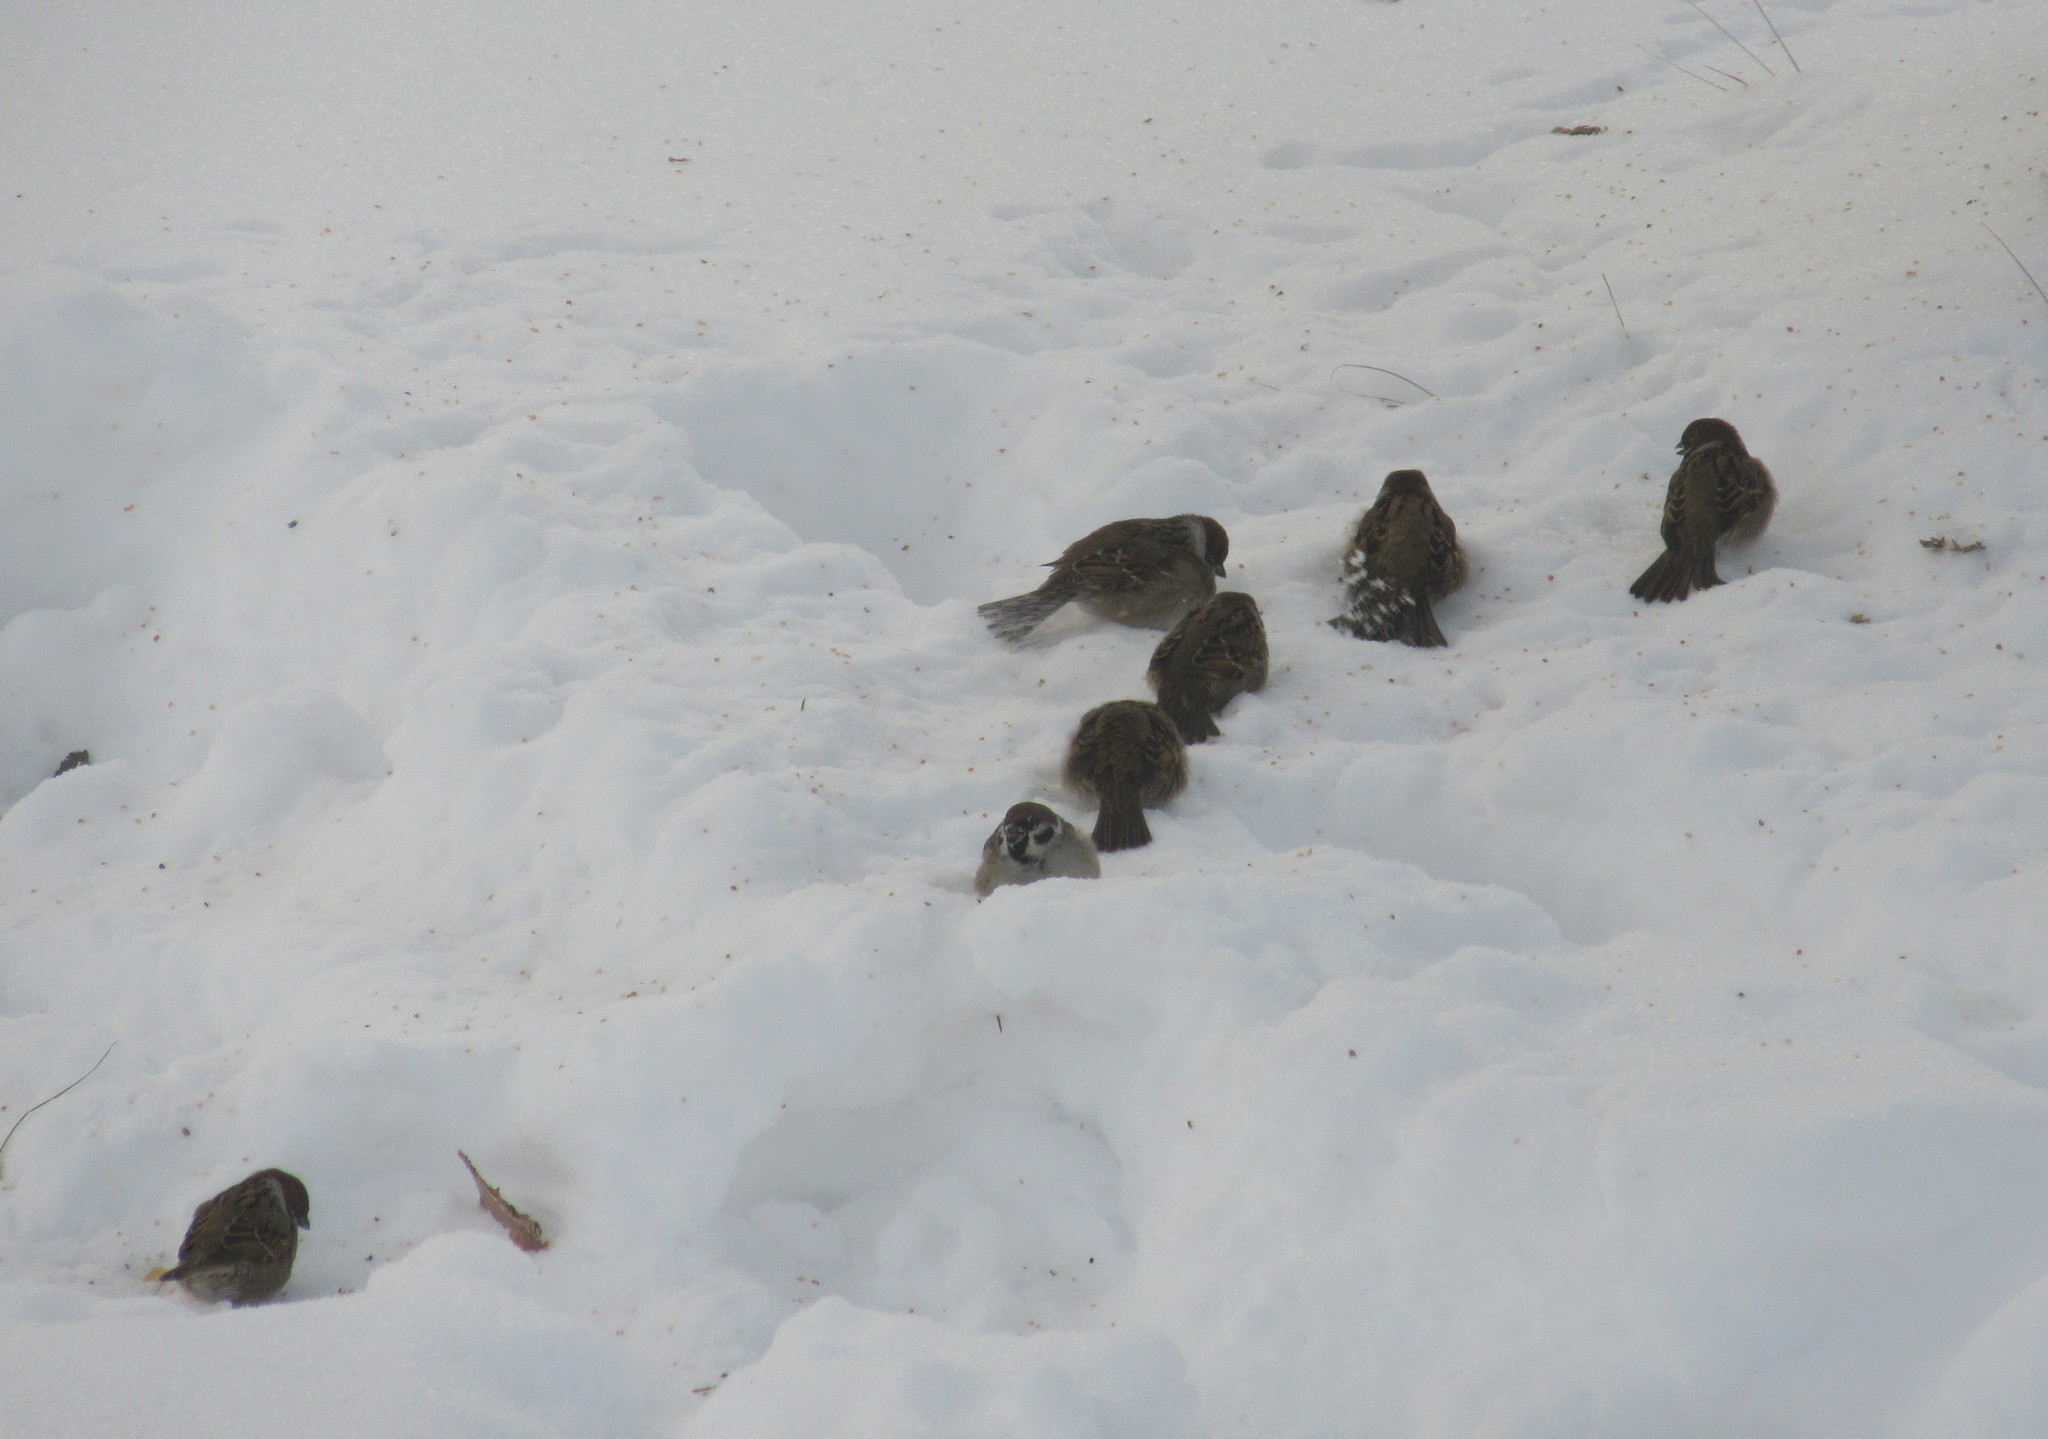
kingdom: Animalia
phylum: Chordata
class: Aves
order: Passeriformes
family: Passeridae
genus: Passer
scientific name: Passer montanus
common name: Eurasian tree sparrow
